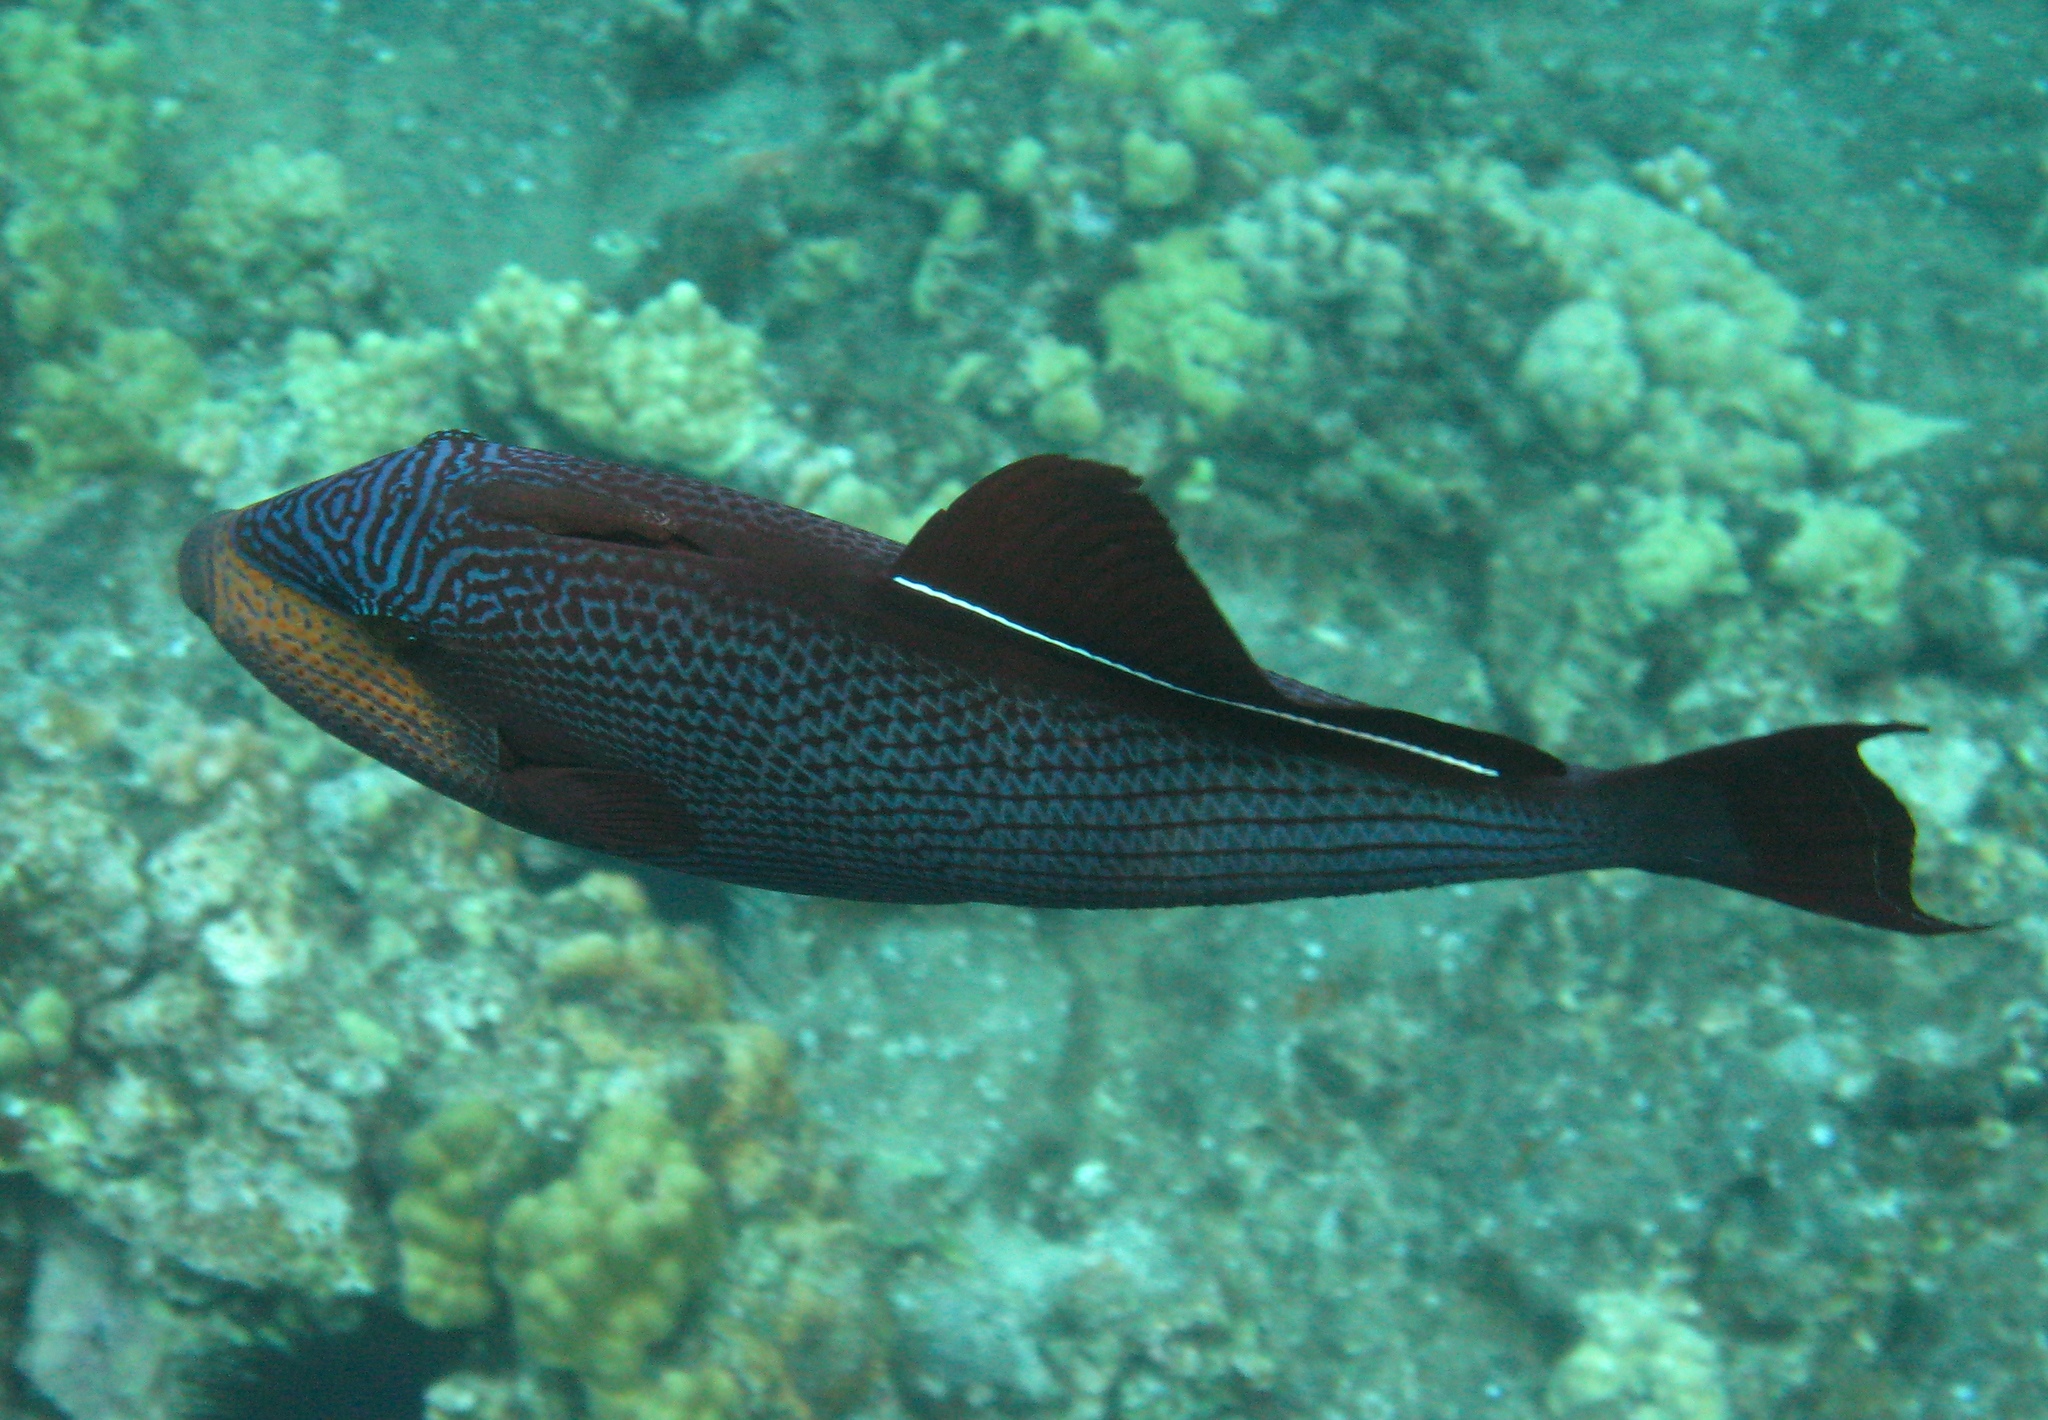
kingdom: Animalia
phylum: Chordata
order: Tetraodontiformes
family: Balistidae
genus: Melichthys
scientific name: Melichthys niger
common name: Black durgon
